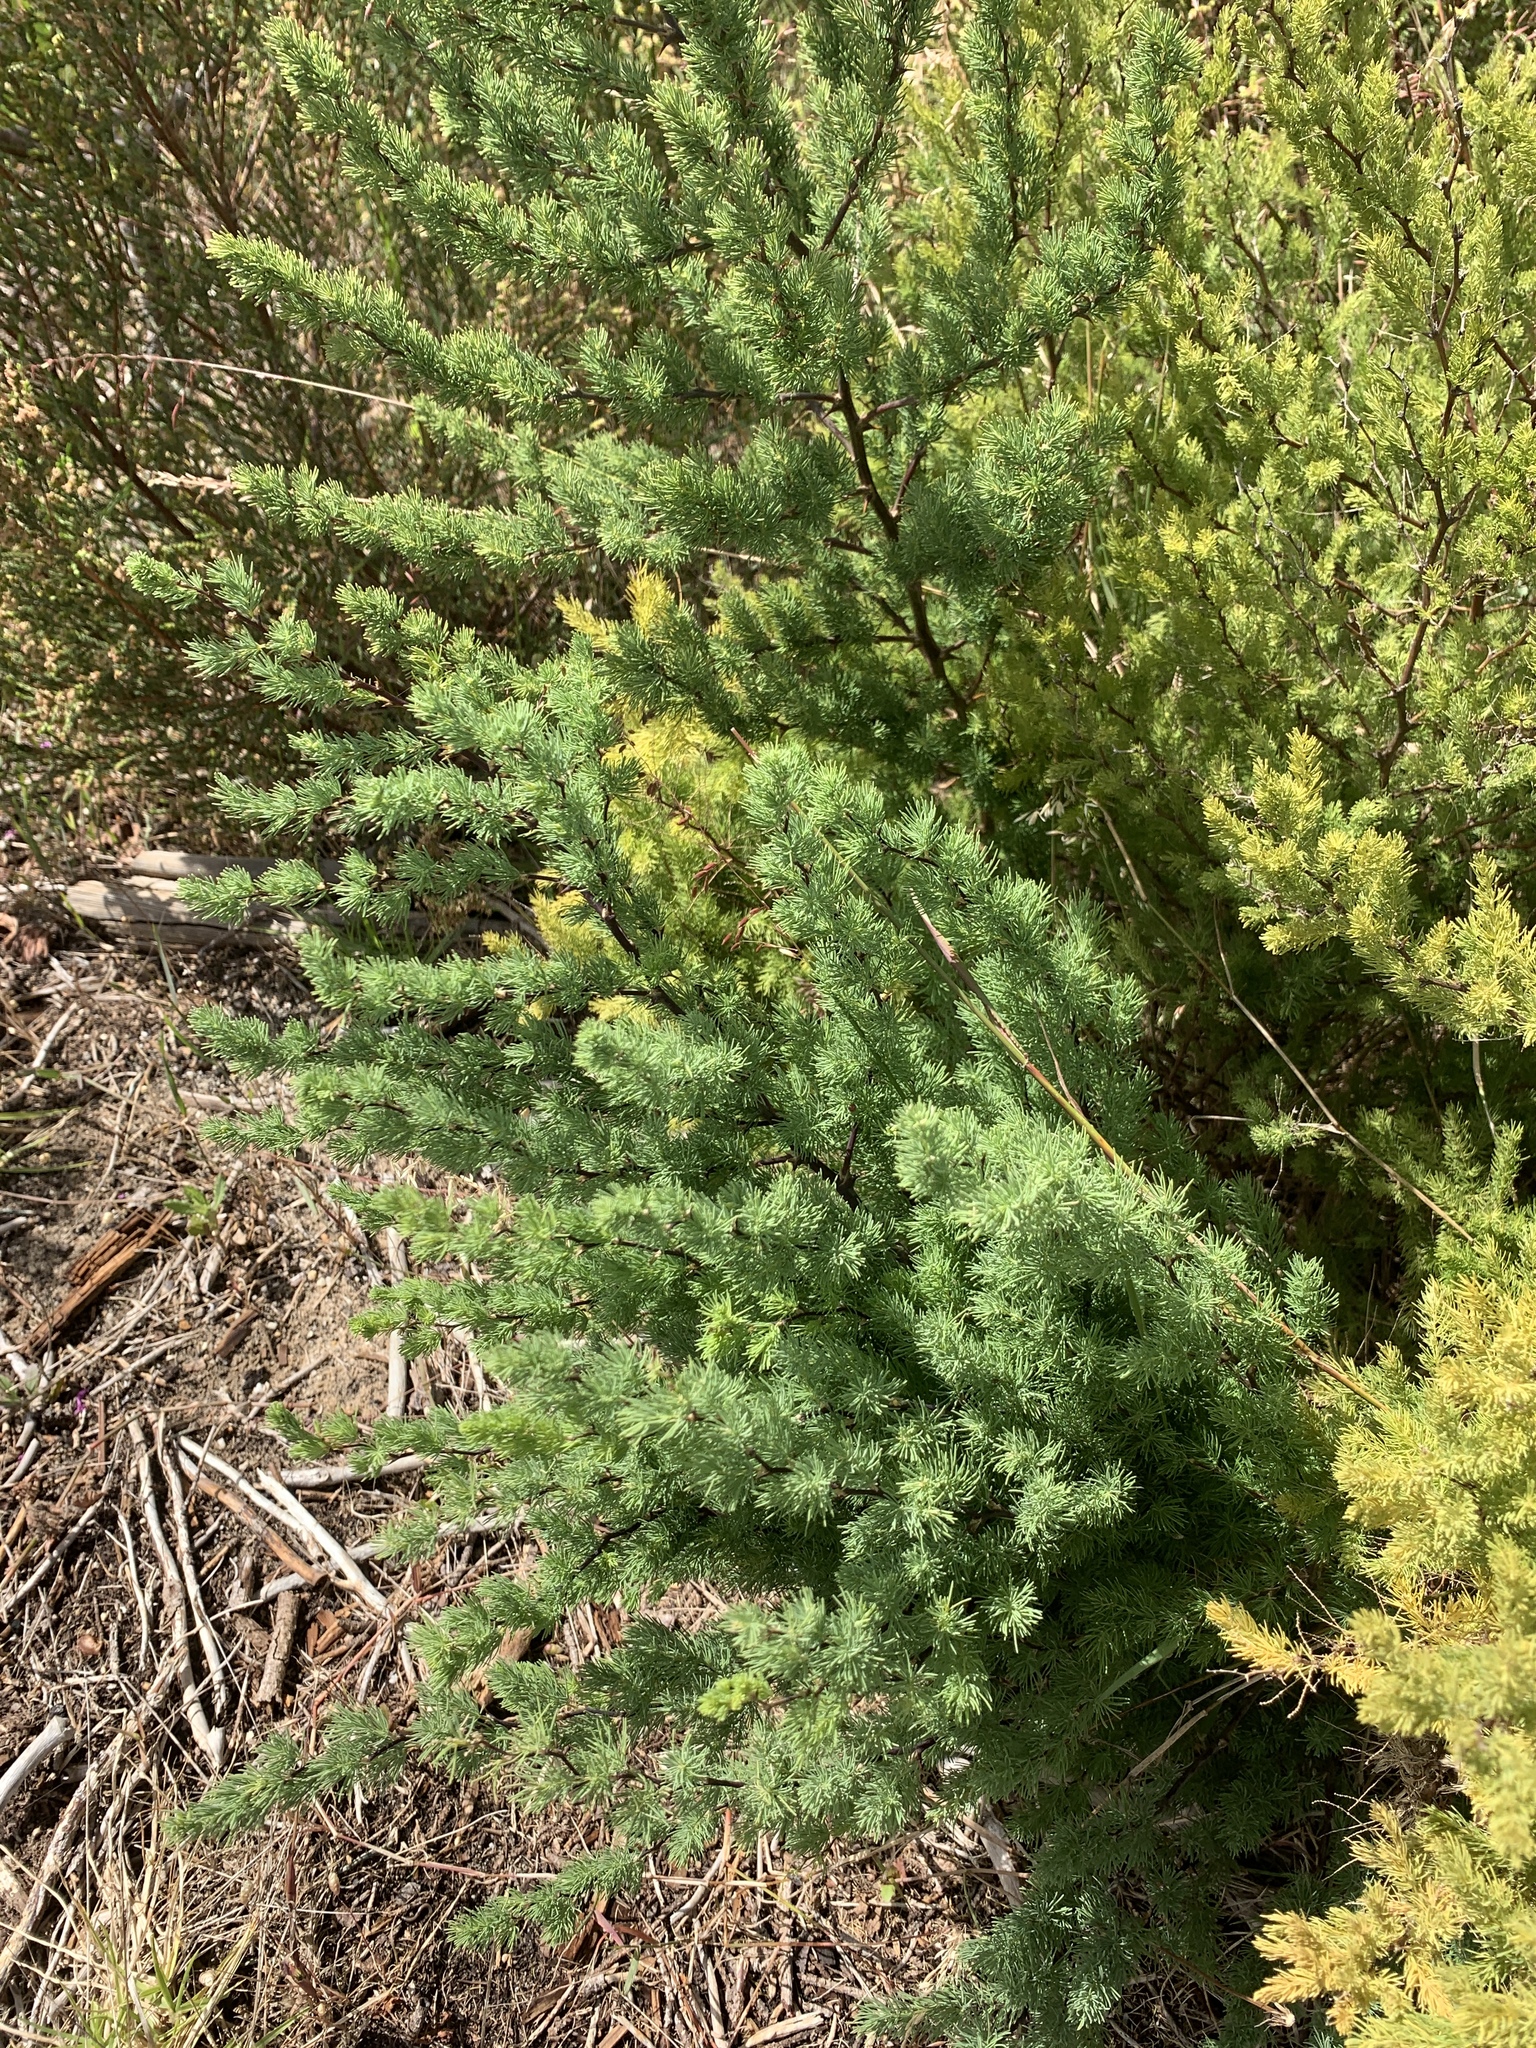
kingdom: Plantae
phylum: Tracheophyta
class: Liliopsida
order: Asparagales
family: Asparagaceae
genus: Asparagus
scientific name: Asparagus rubicundus
